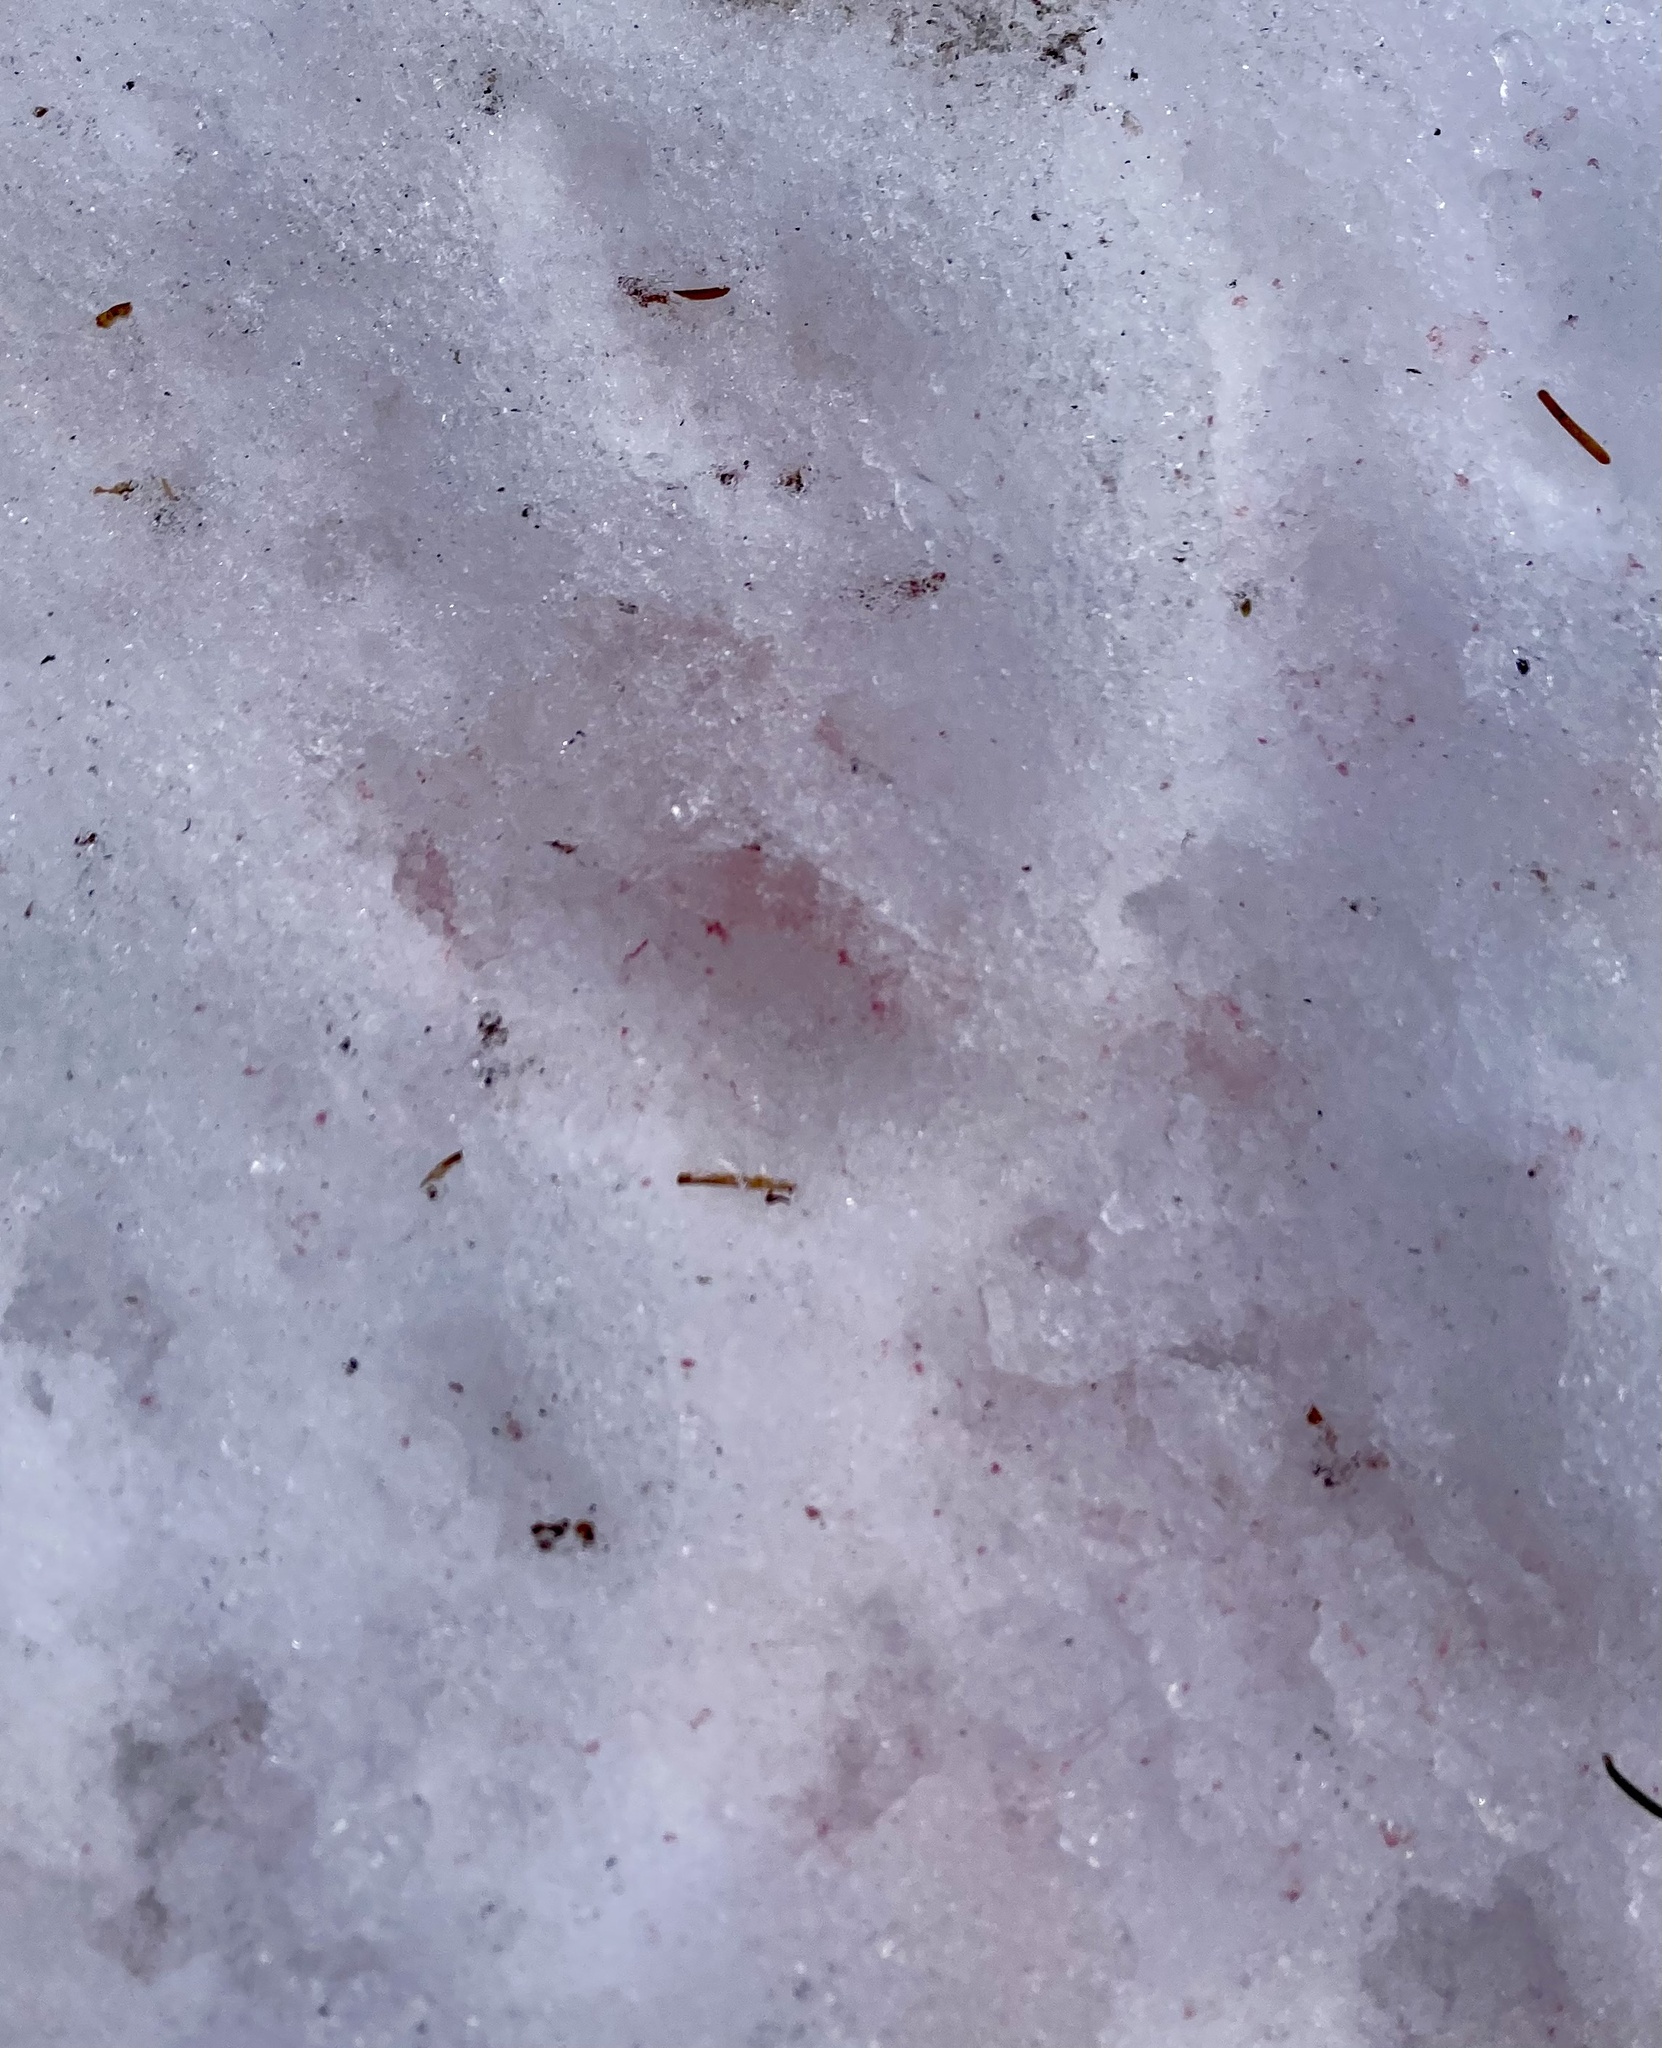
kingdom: Plantae
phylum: Chlorophyta
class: Chlorophyceae
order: Volvocales
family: Chlamydomonadaceae
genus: Chlamydomonas
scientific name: Chlamydomonas nivalis
